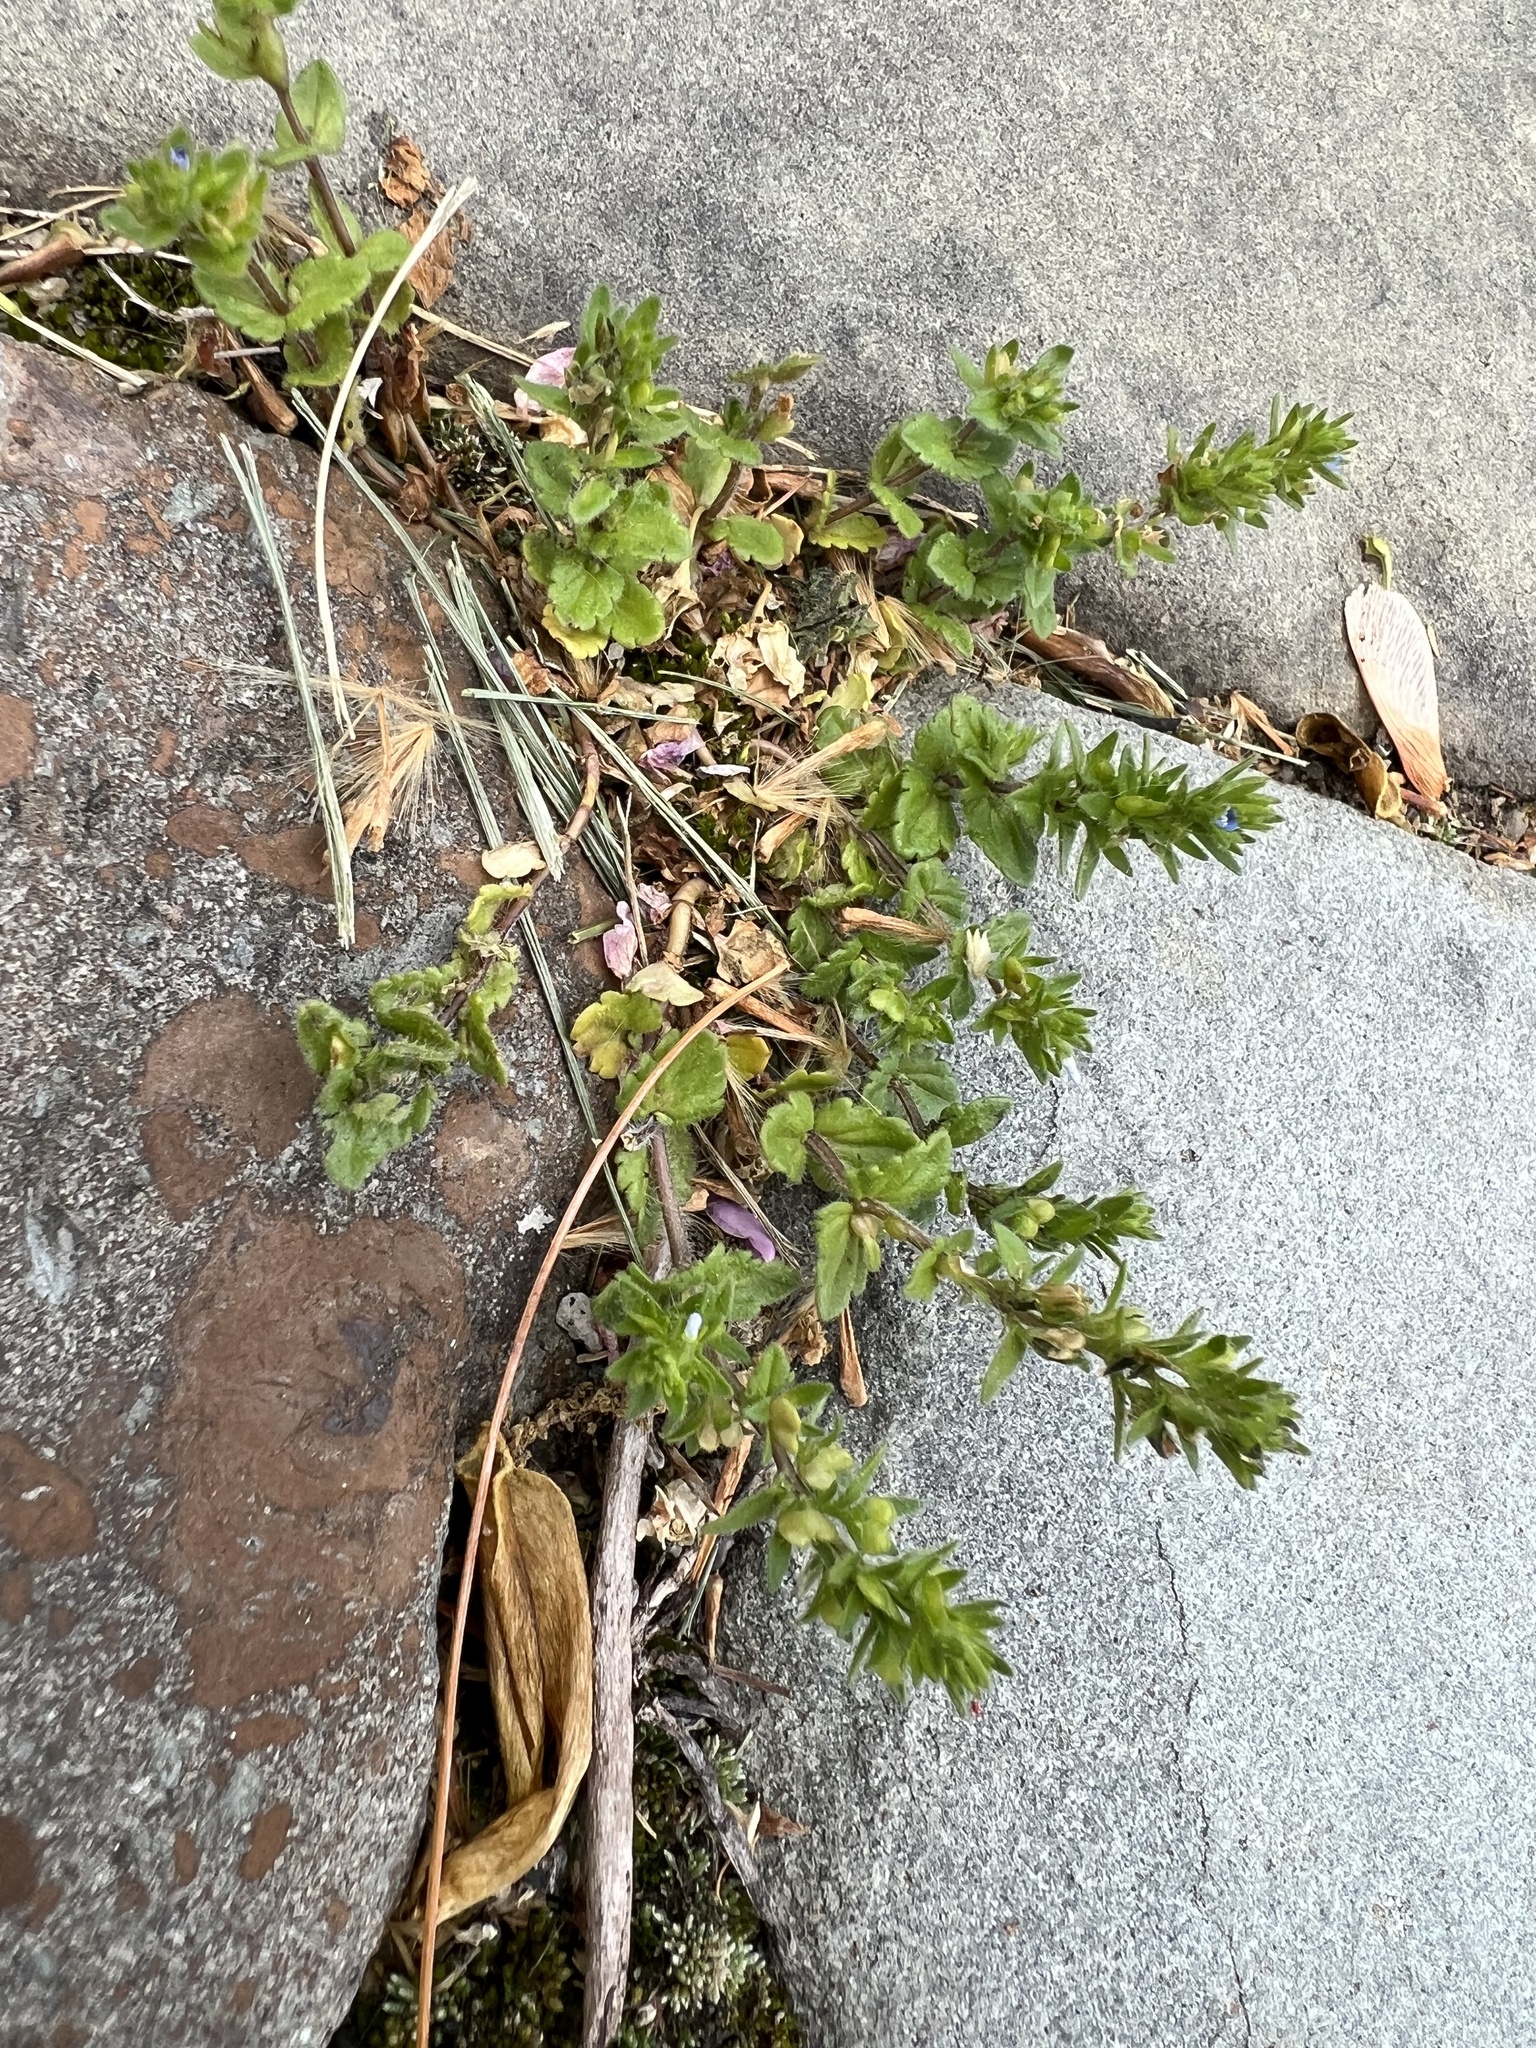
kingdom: Plantae
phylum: Tracheophyta
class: Magnoliopsida
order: Lamiales
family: Plantaginaceae
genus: Veronica
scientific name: Veronica arvensis
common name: Corn speedwell
